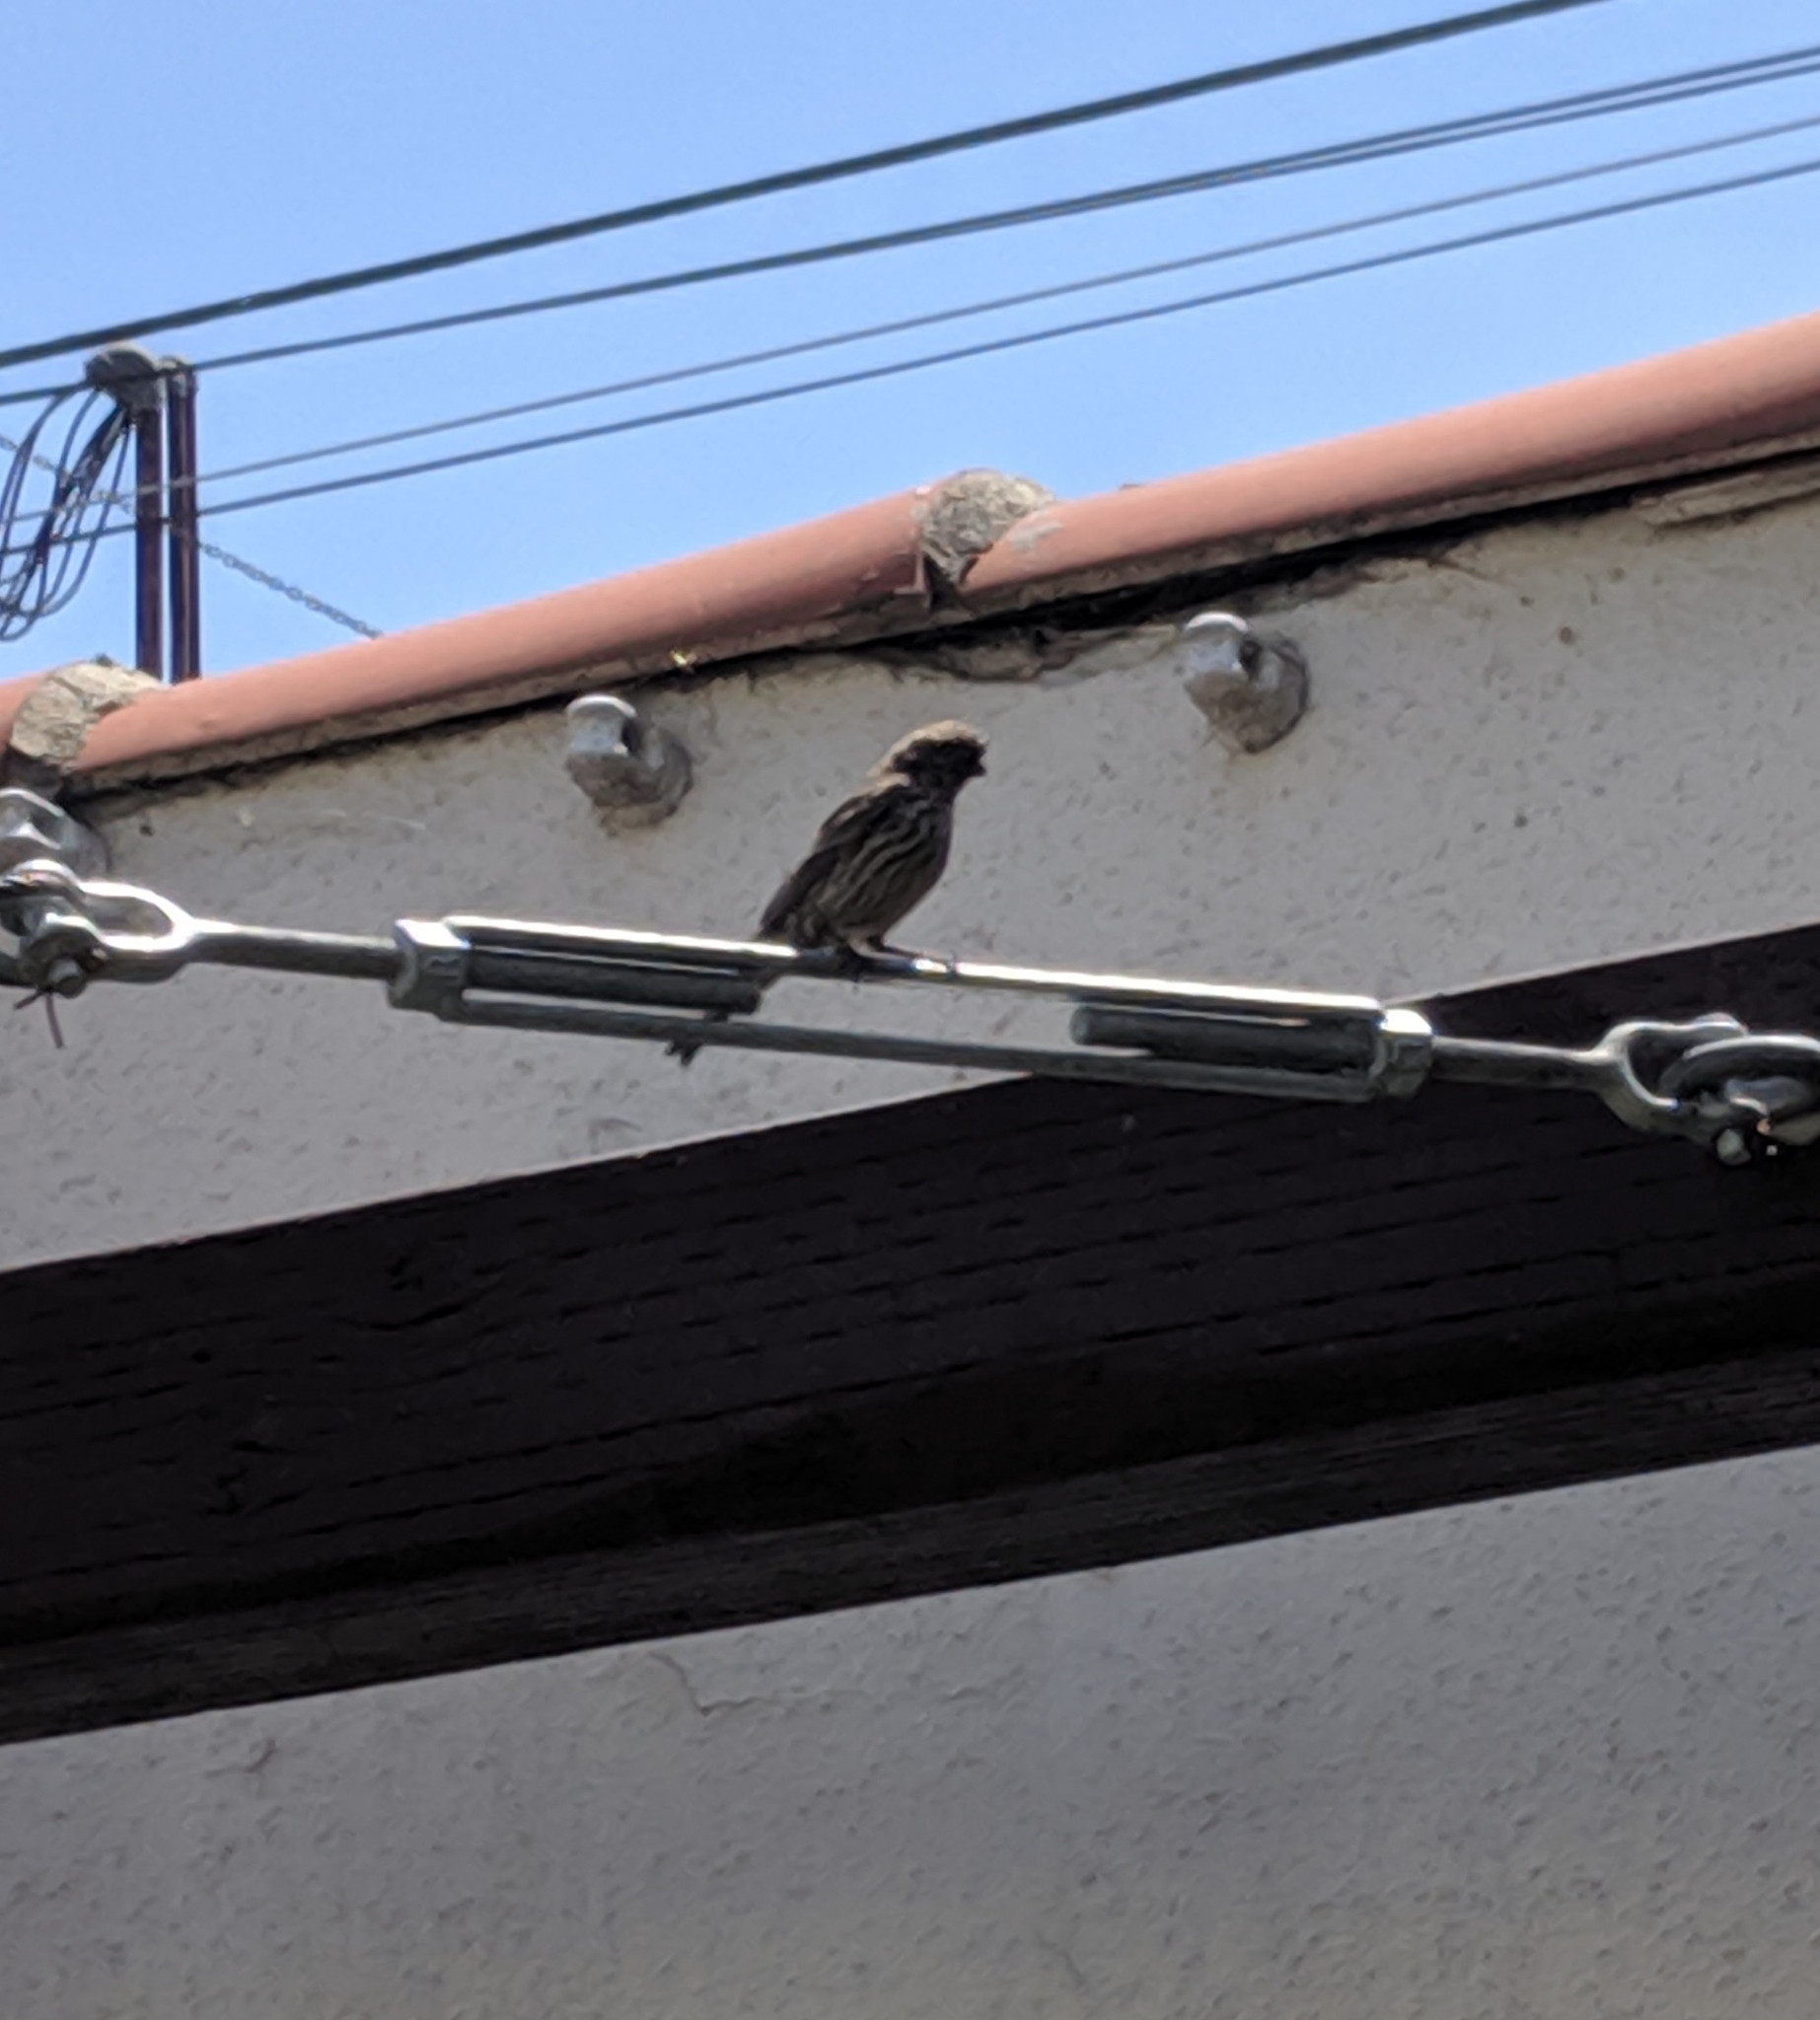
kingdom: Animalia
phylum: Chordata
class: Aves
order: Passeriformes
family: Fringillidae
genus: Haemorhous
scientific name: Haemorhous mexicanus
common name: House finch
